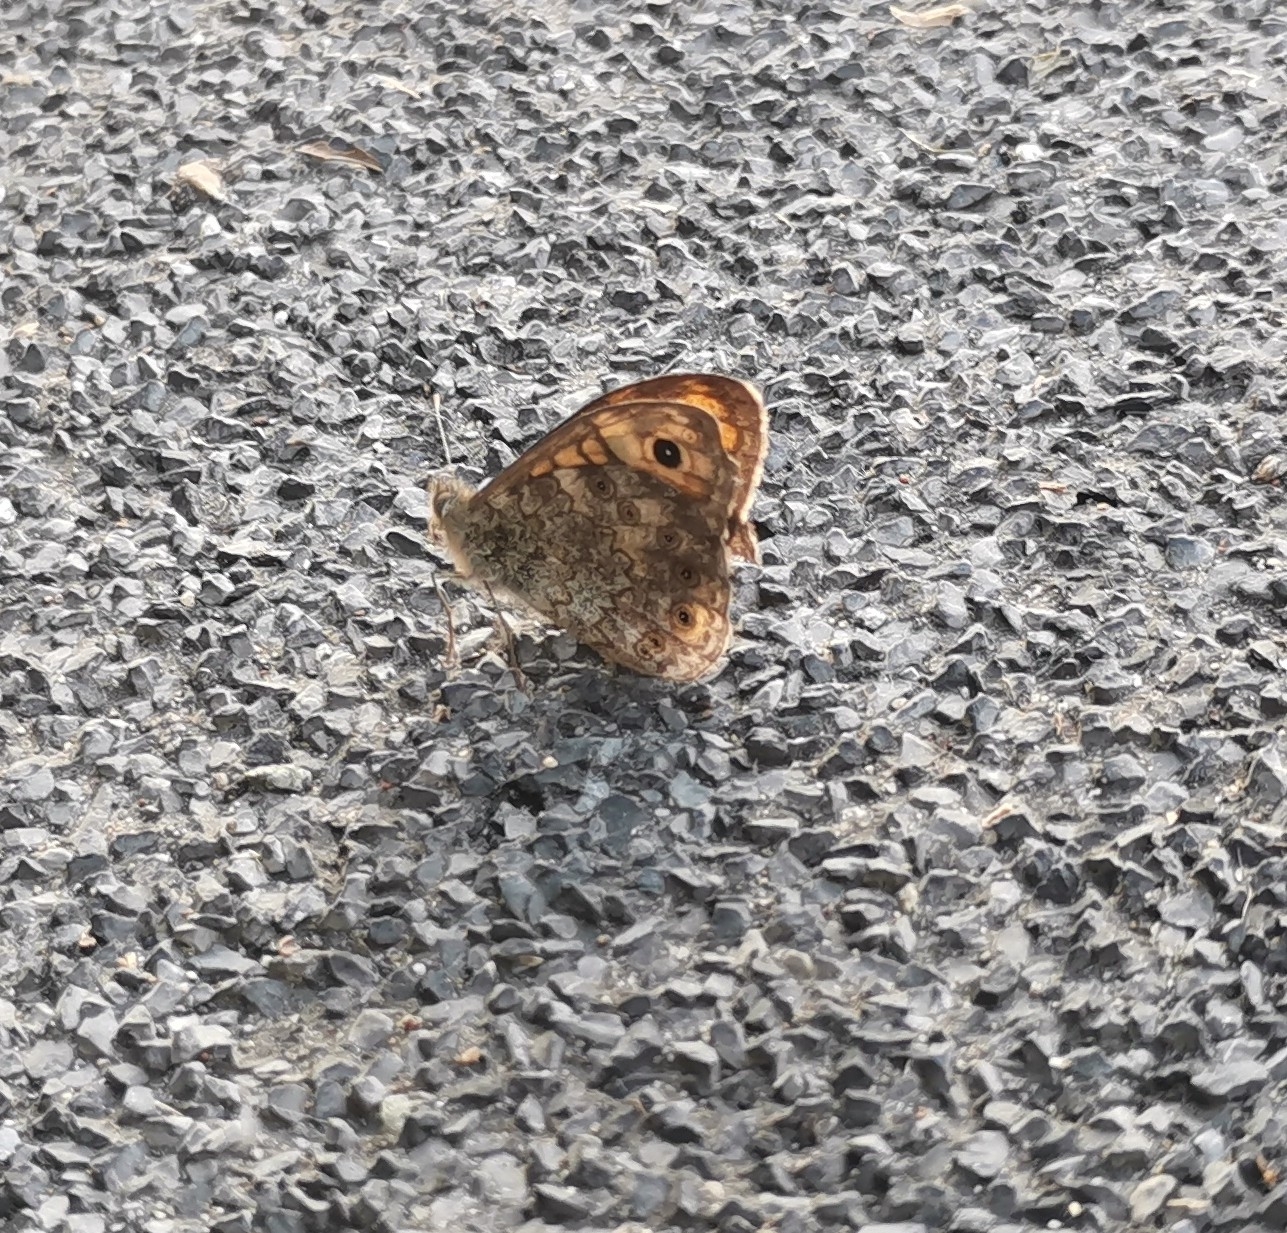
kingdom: Animalia
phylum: Arthropoda
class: Insecta
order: Lepidoptera
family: Nymphalidae
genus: Pararge
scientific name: Pararge Lasiommata megera
